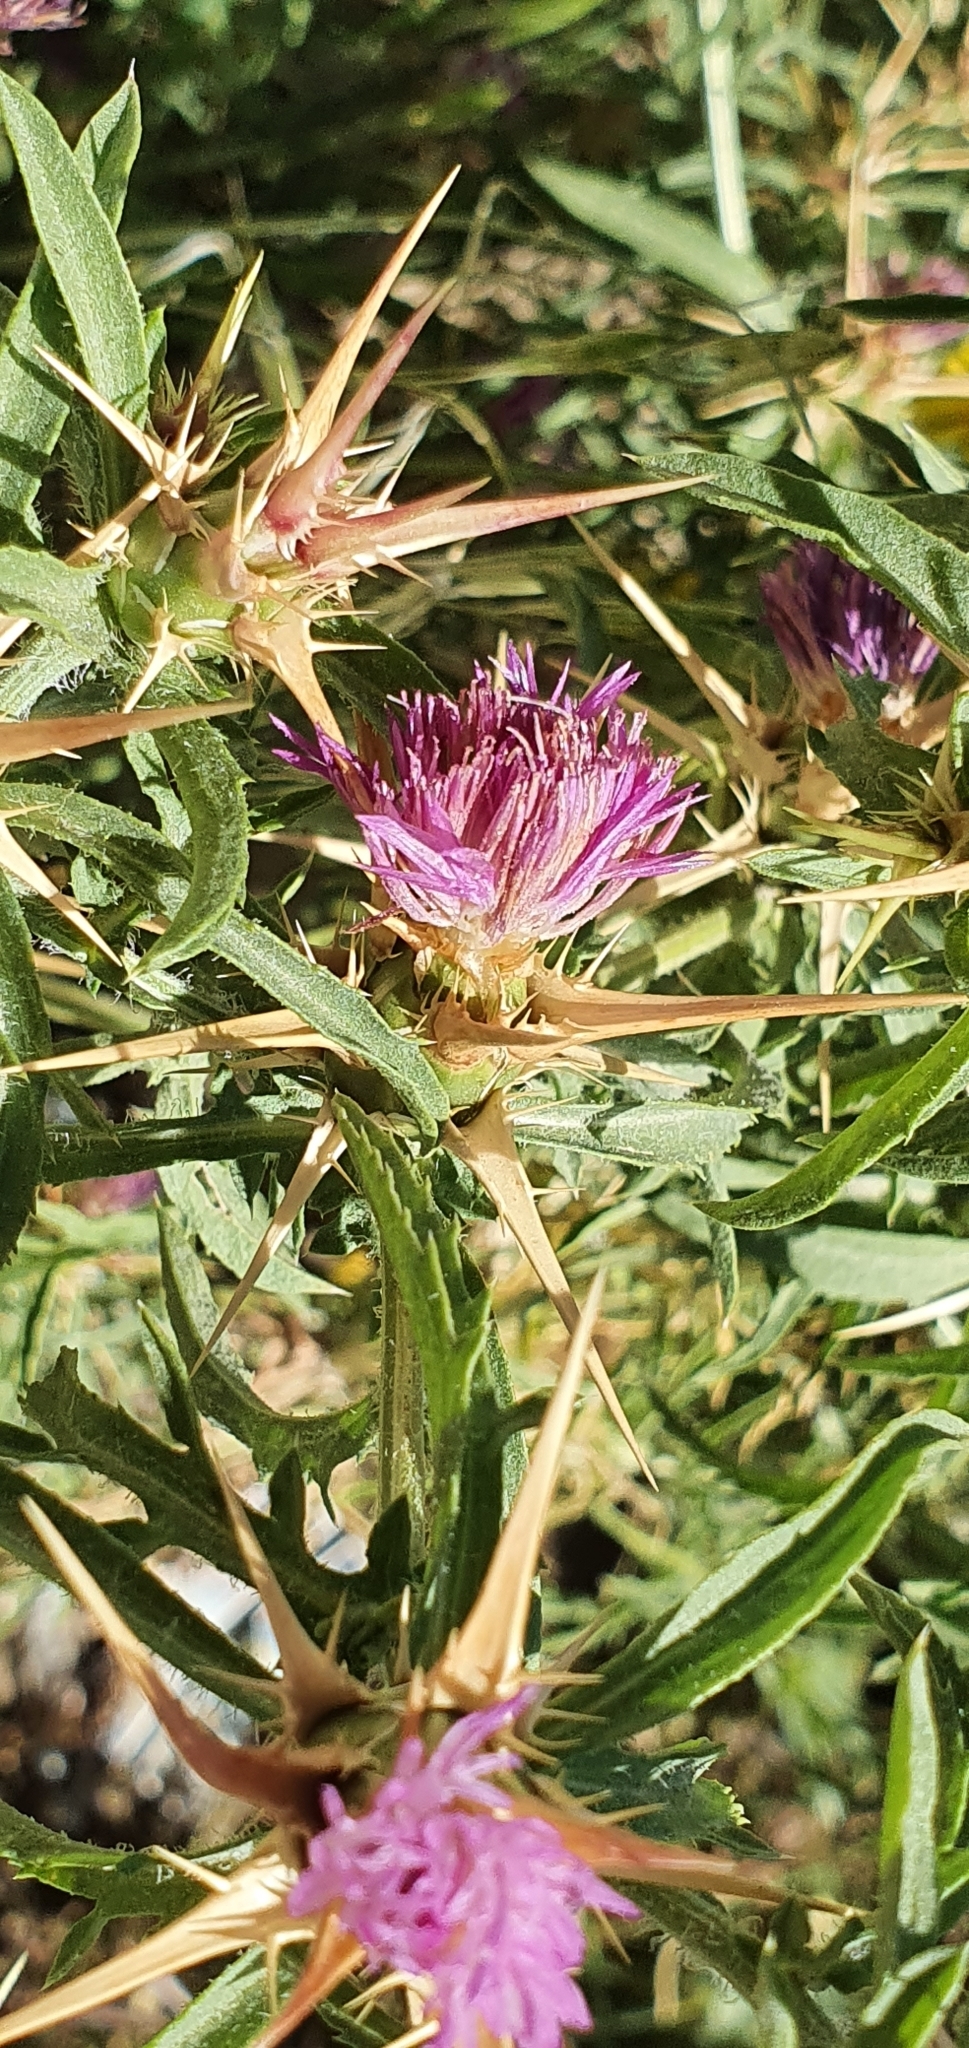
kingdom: Plantae
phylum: Tracheophyta
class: Magnoliopsida
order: Asterales
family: Asteraceae
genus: Centaurea
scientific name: Centaurea calcitrapa
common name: Red star-thistle
